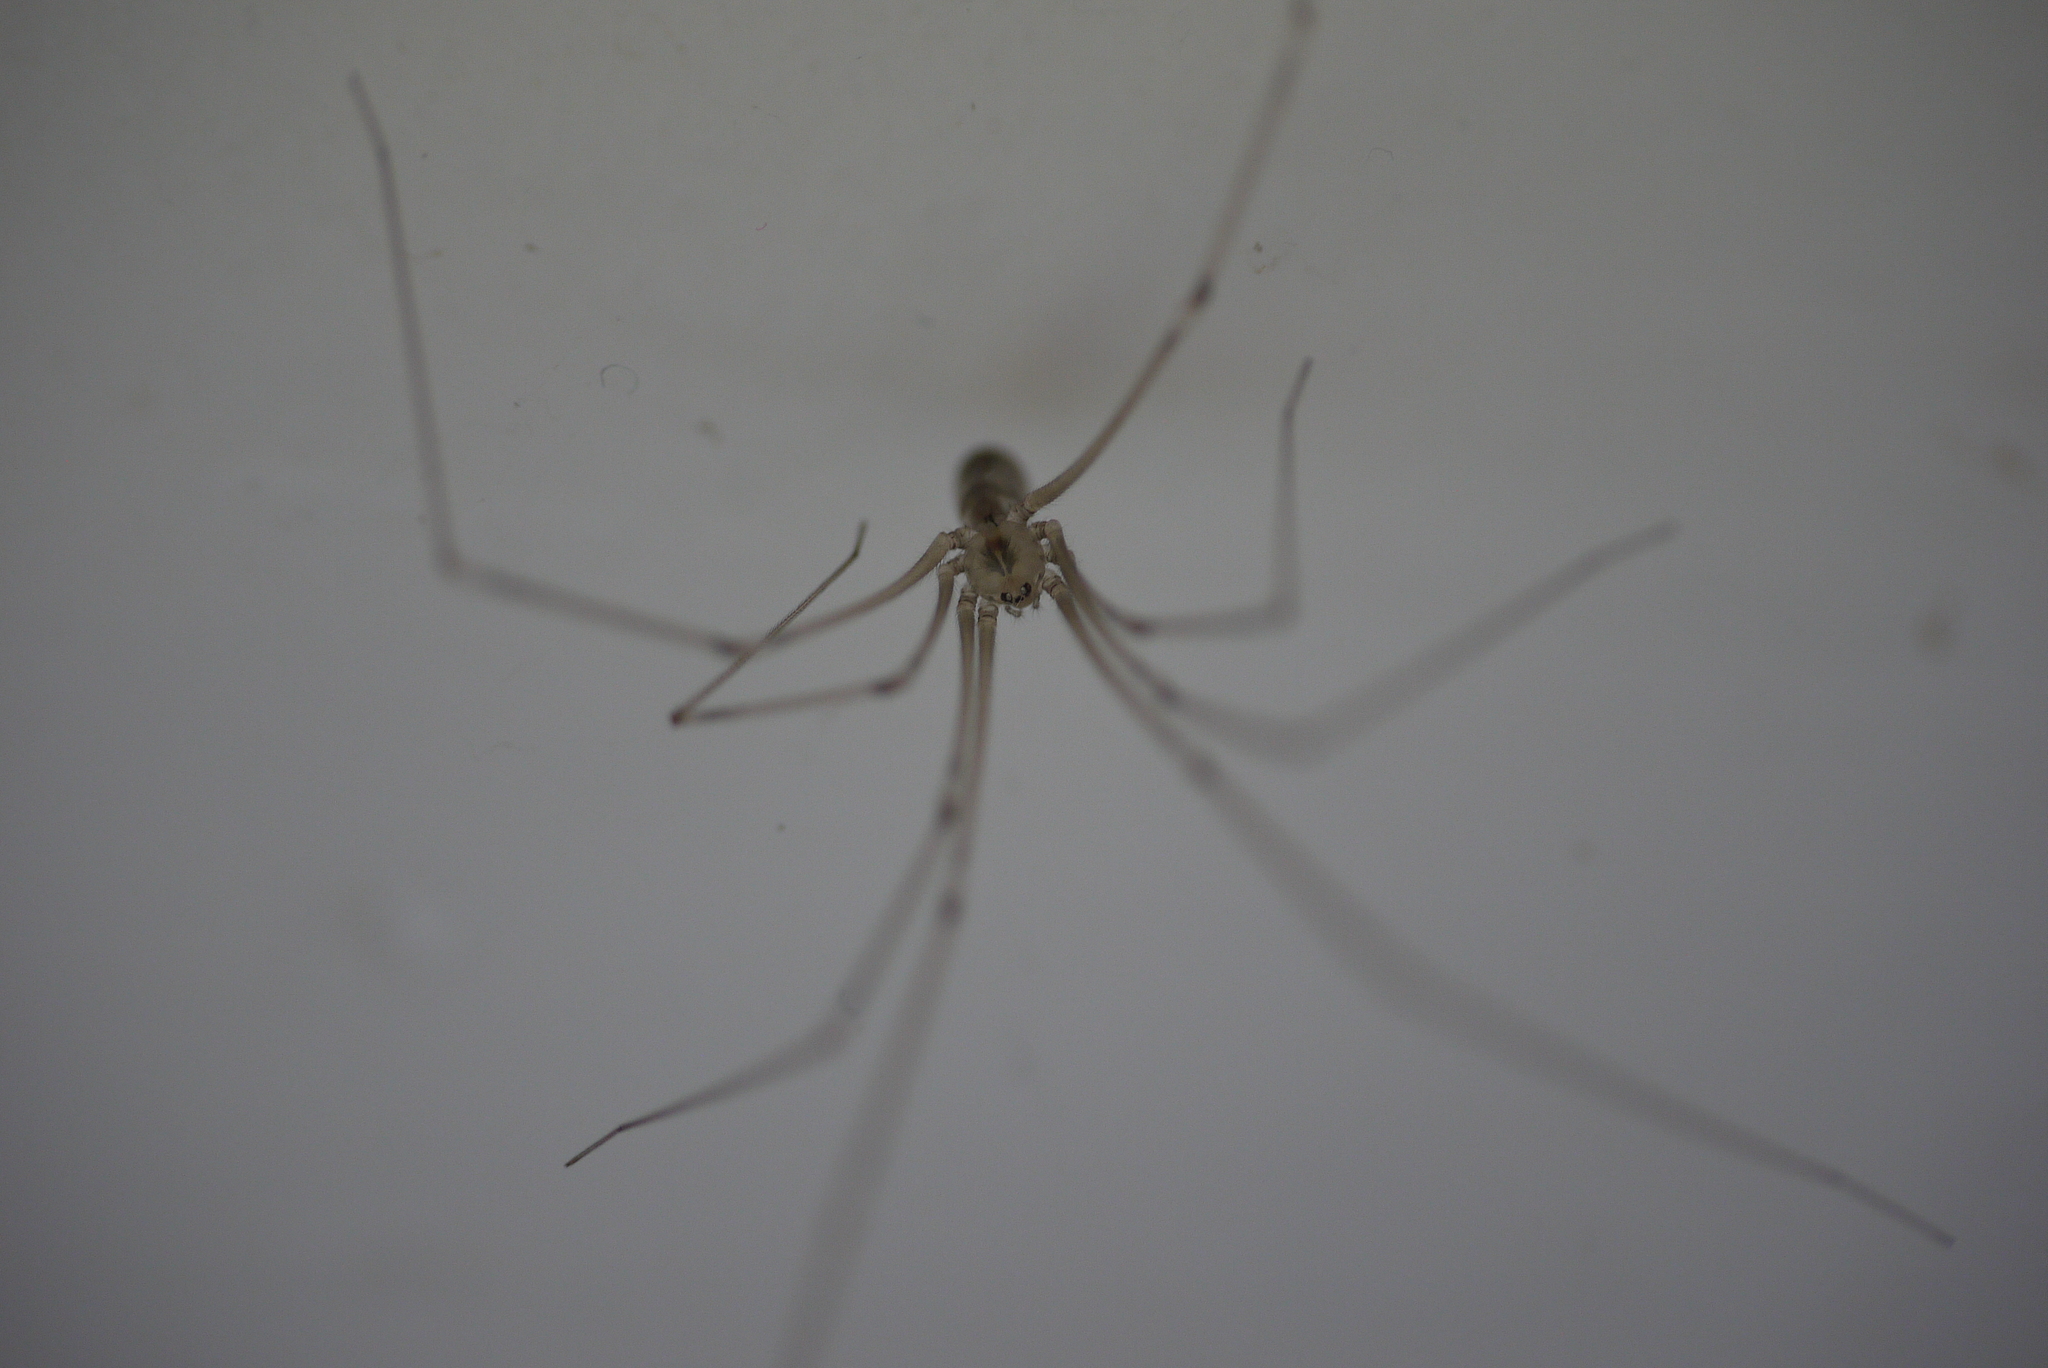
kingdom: Animalia
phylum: Arthropoda
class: Arachnida
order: Araneae
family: Pholcidae
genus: Pholcus
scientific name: Pholcus phalangioides
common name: Longbodied cellar spider
